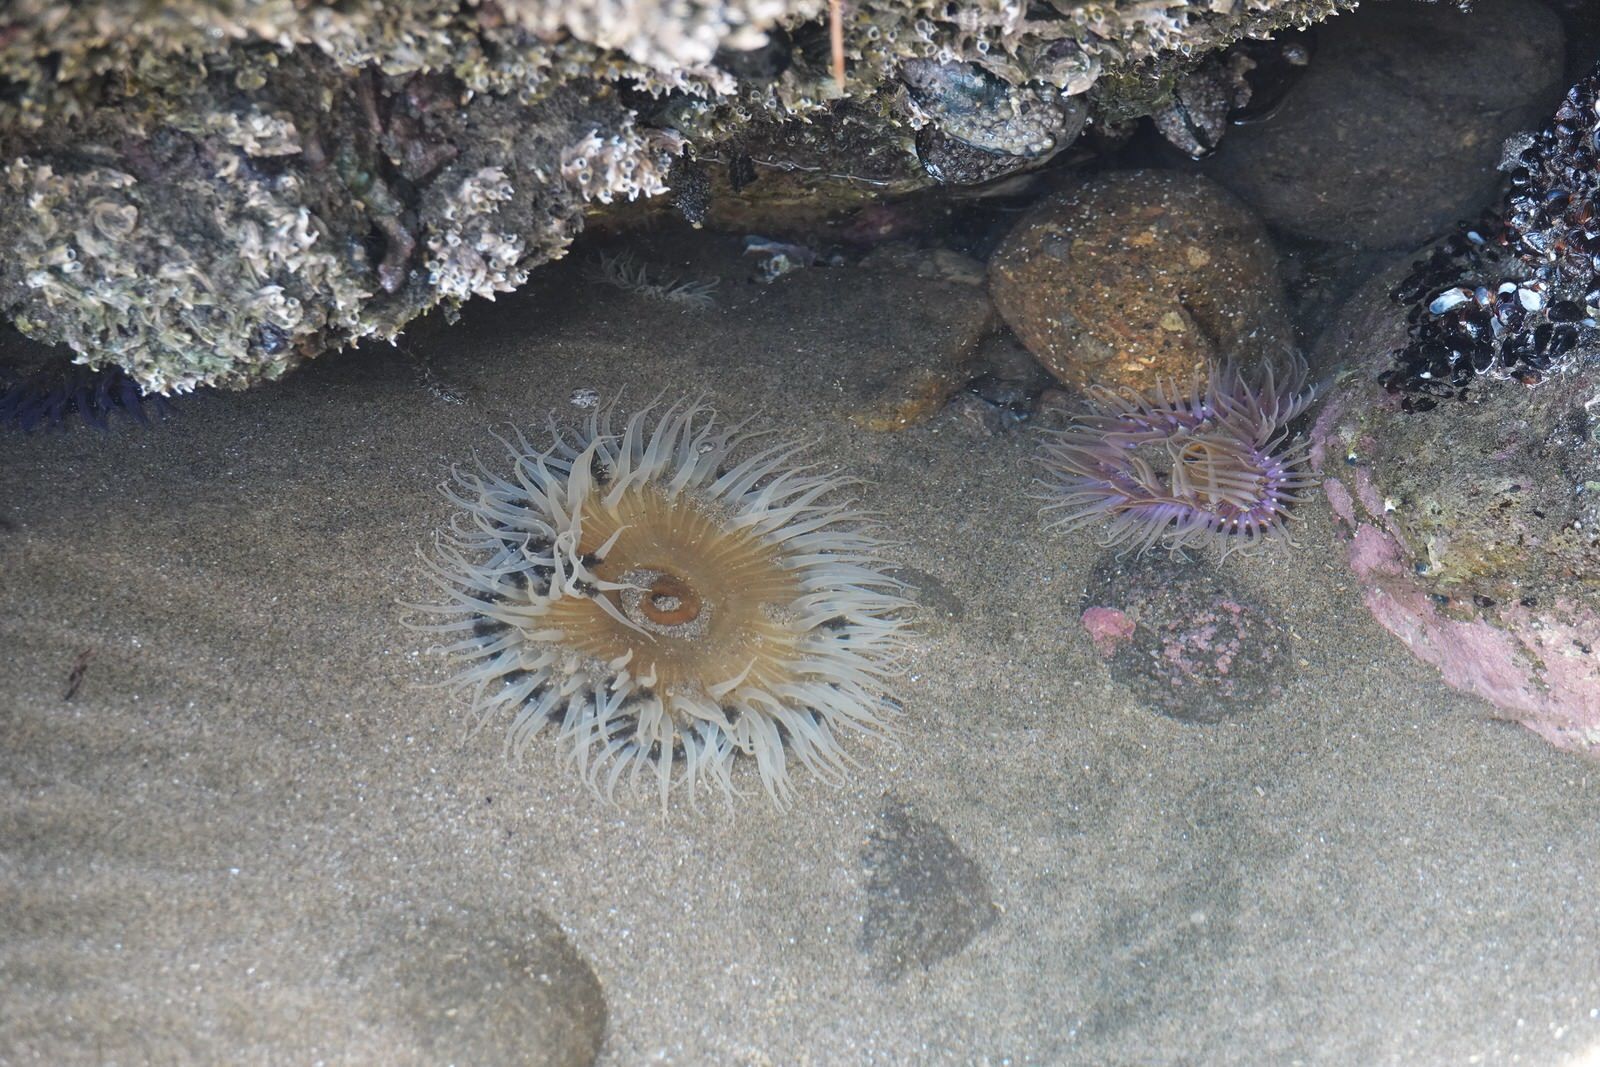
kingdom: Animalia
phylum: Cnidaria
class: Anthozoa
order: Actiniaria
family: Actiniidae
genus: Oulactis
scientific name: Oulactis magna
